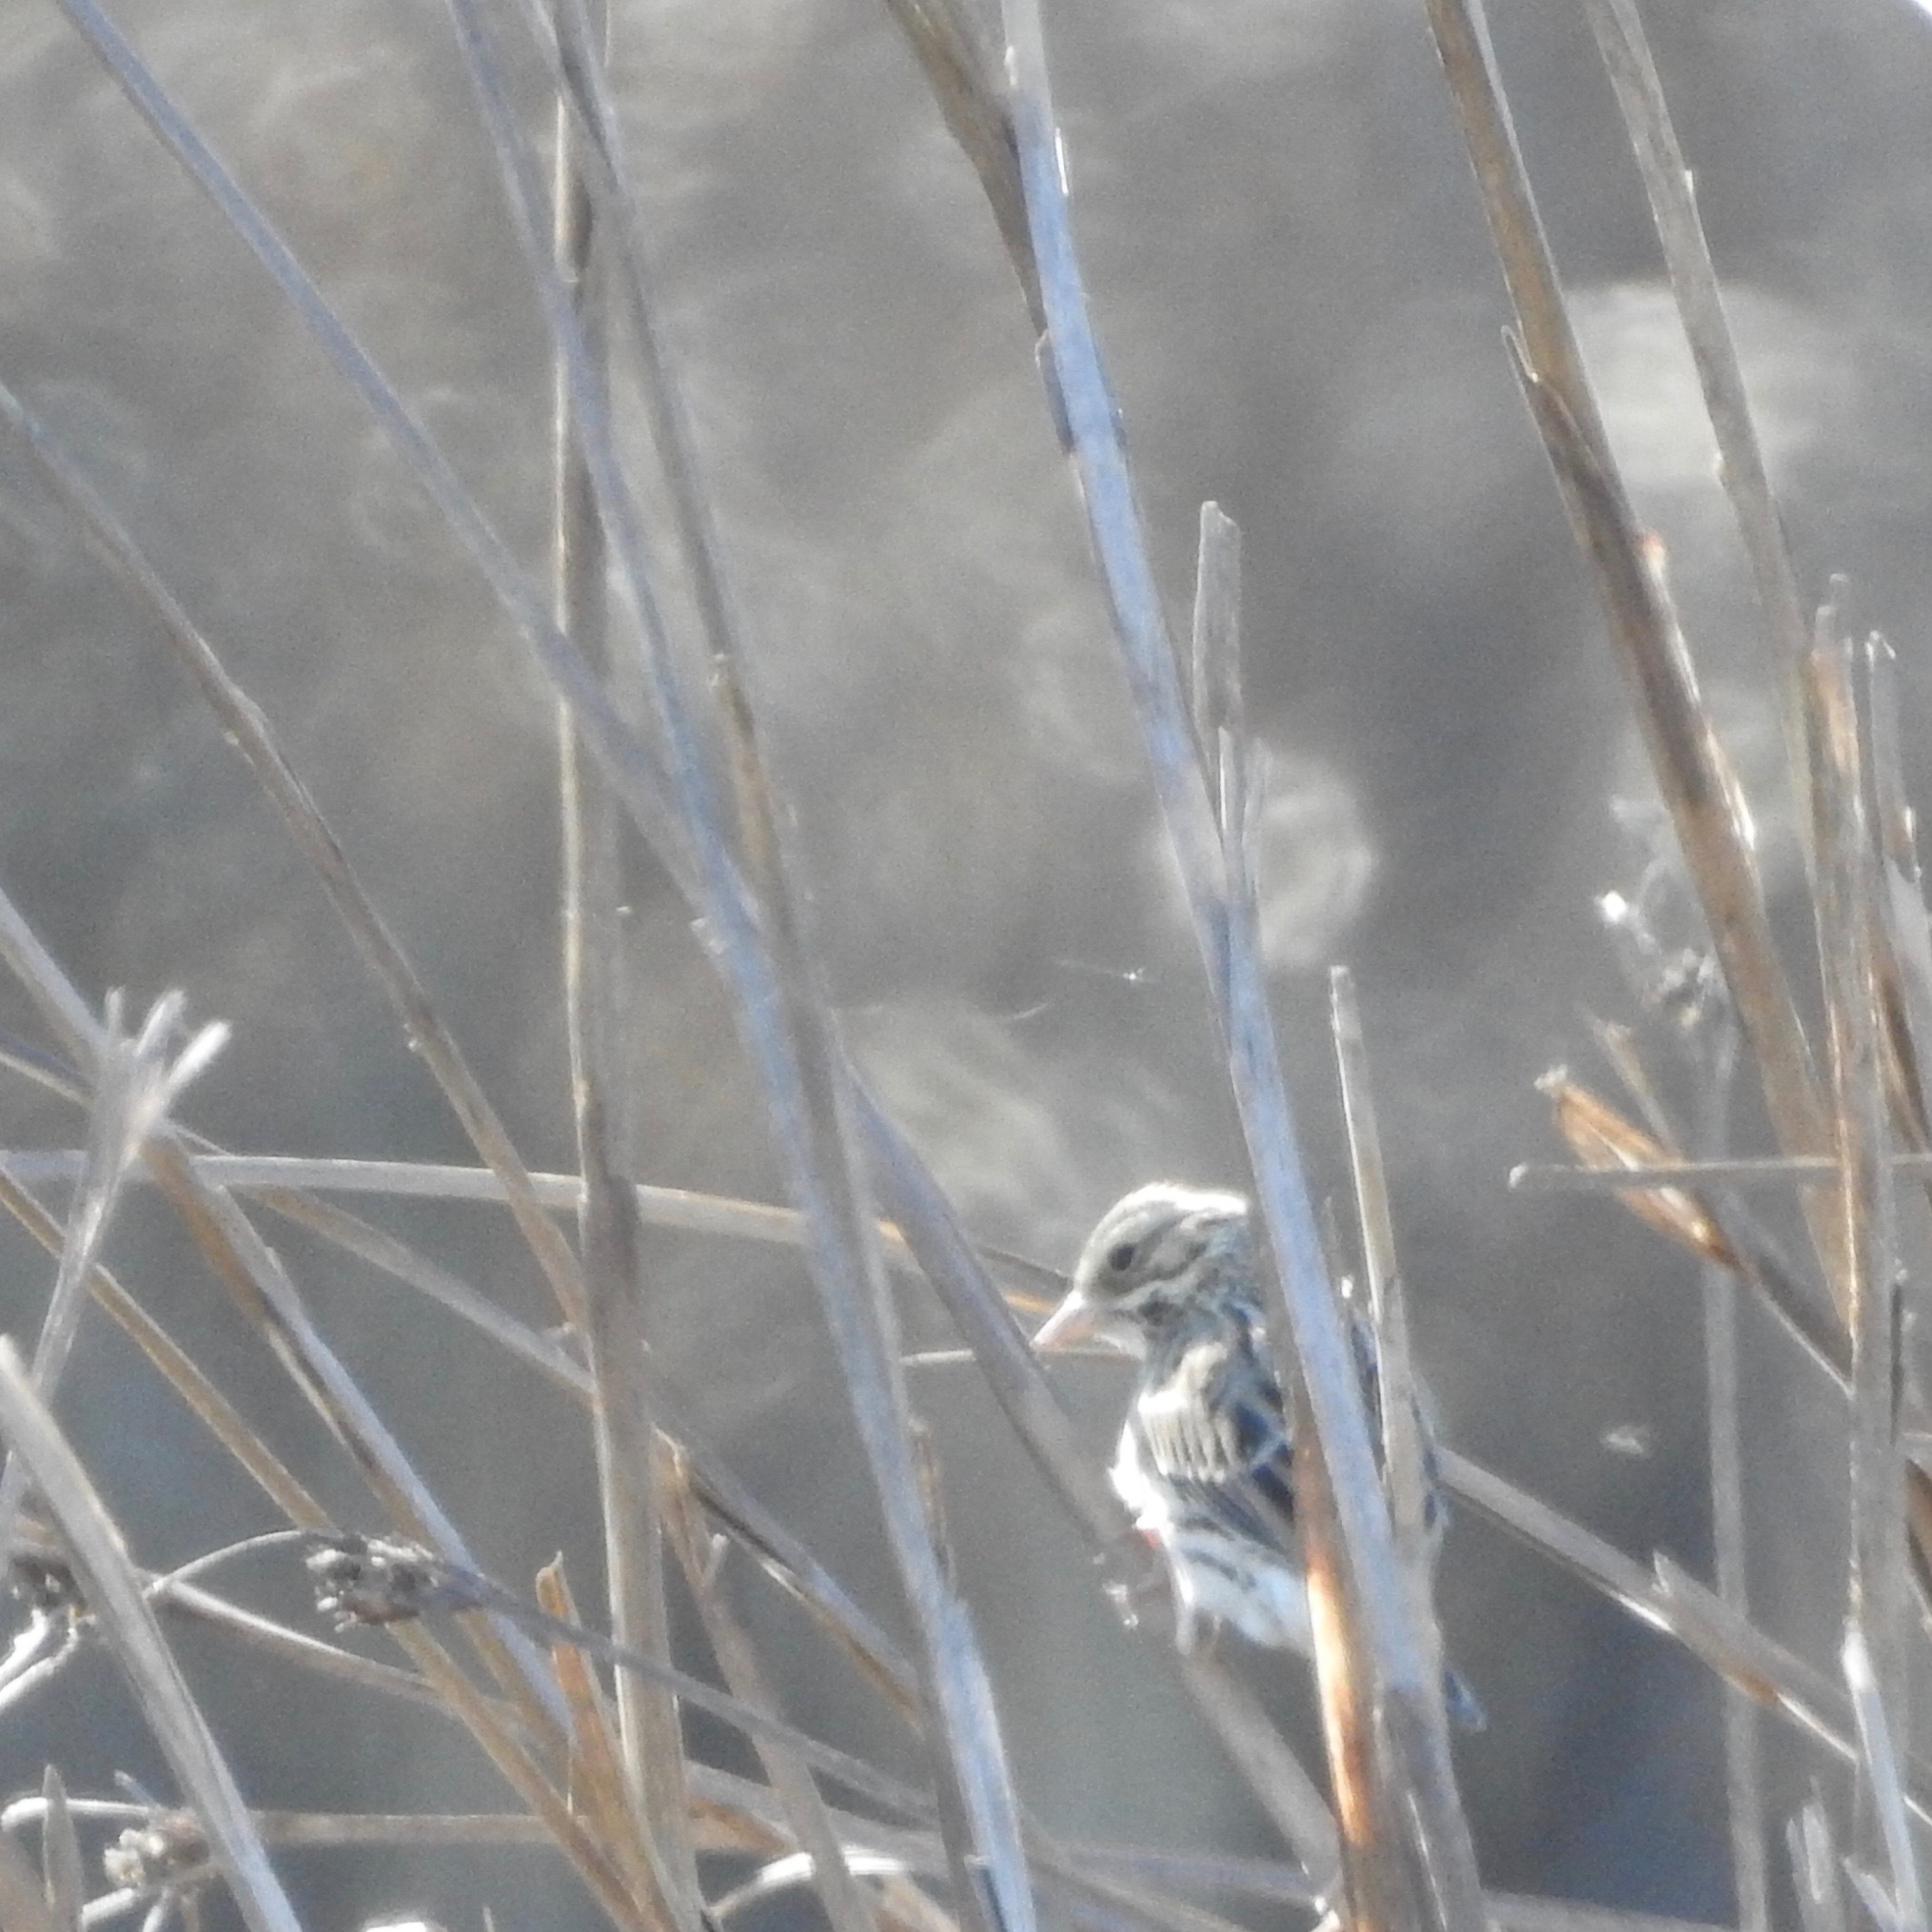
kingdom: Animalia
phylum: Chordata
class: Aves
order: Passeriformes
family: Passerellidae
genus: Passerculus
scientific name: Passerculus sandwichensis
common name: Savannah sparrow
